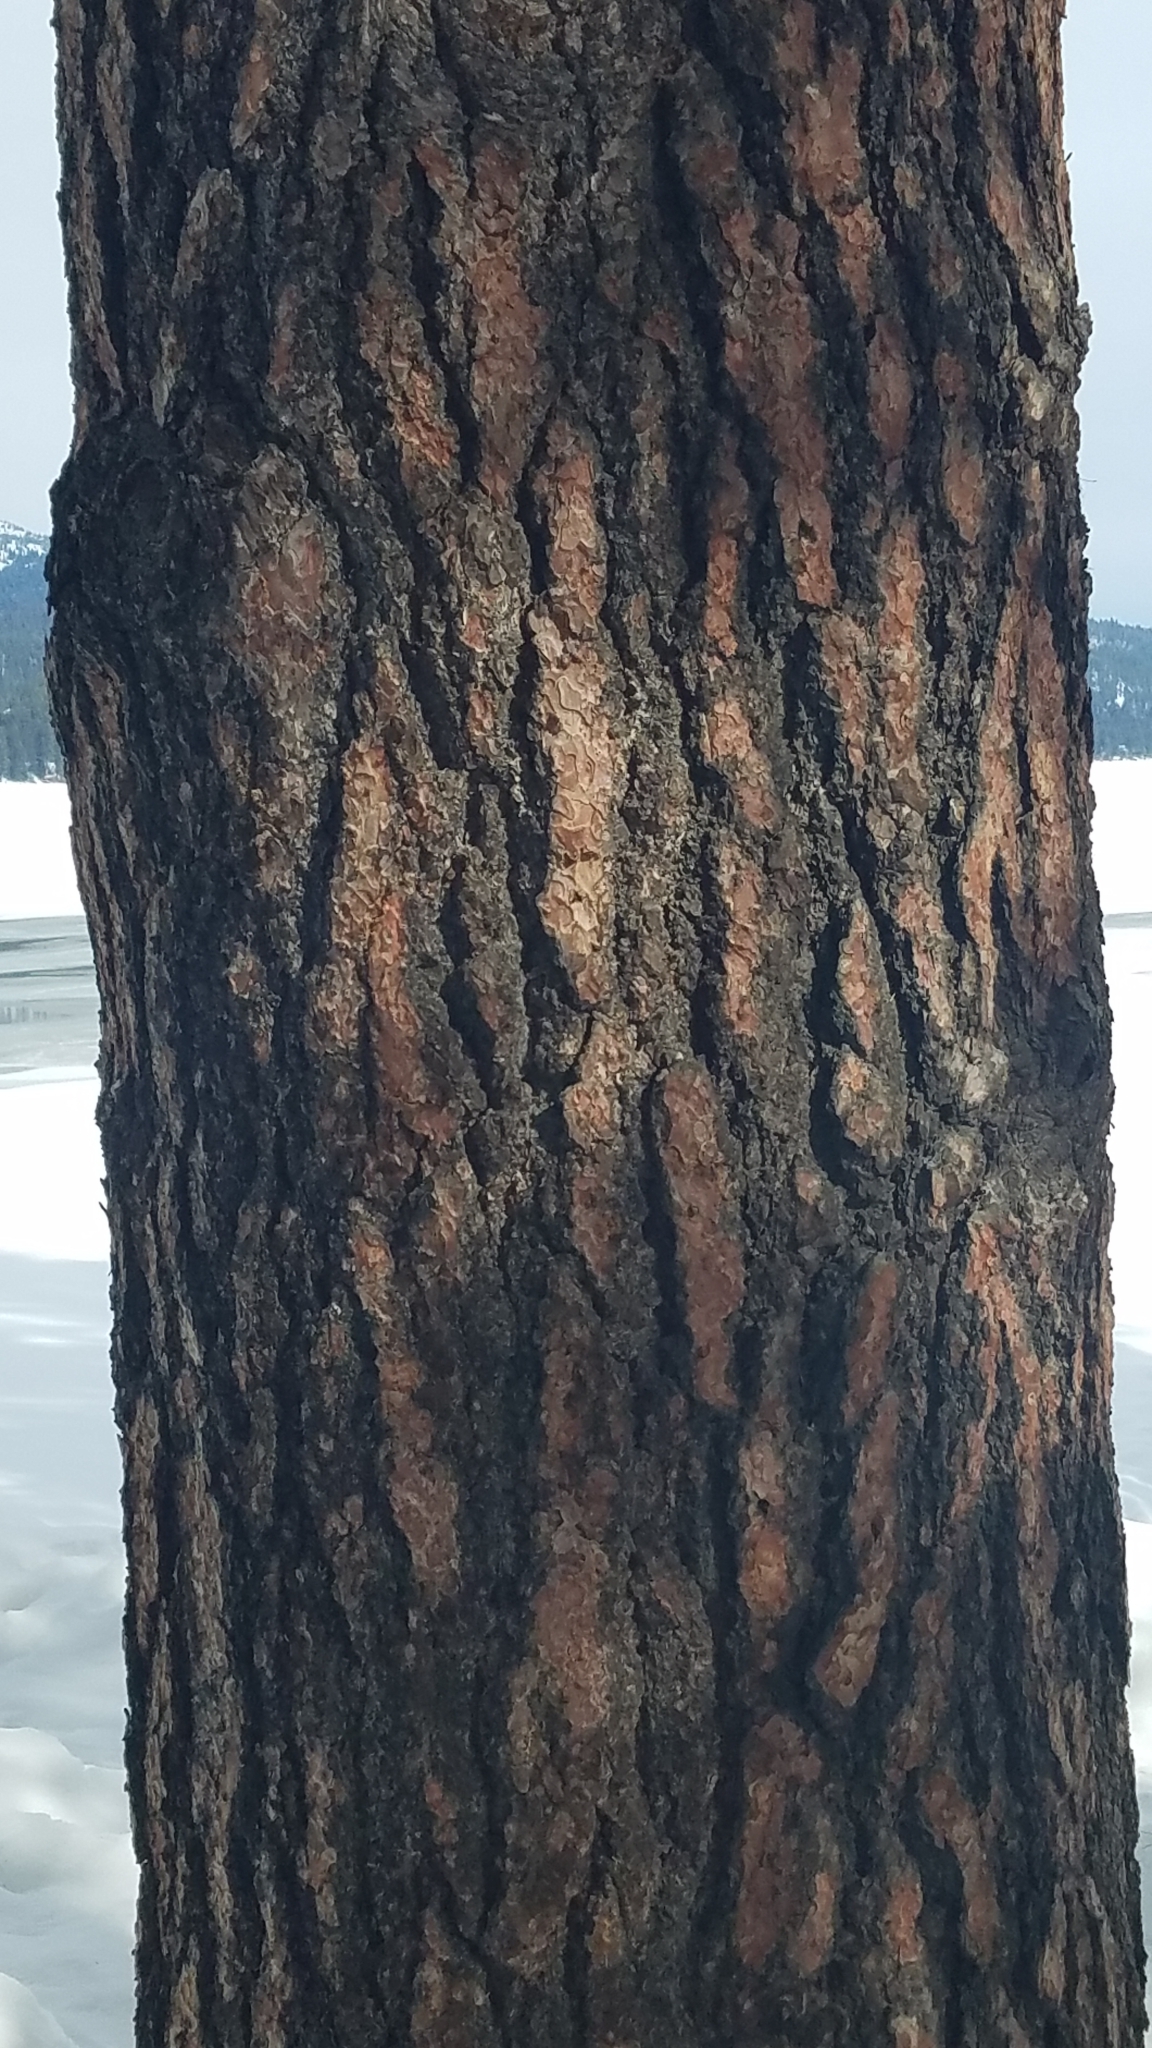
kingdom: Plantae
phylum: Tracheophyta
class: Pinopsida
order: Pinales
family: Pinaceae
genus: Pinus
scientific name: Pinus ponderosa
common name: Western yellow-pine
